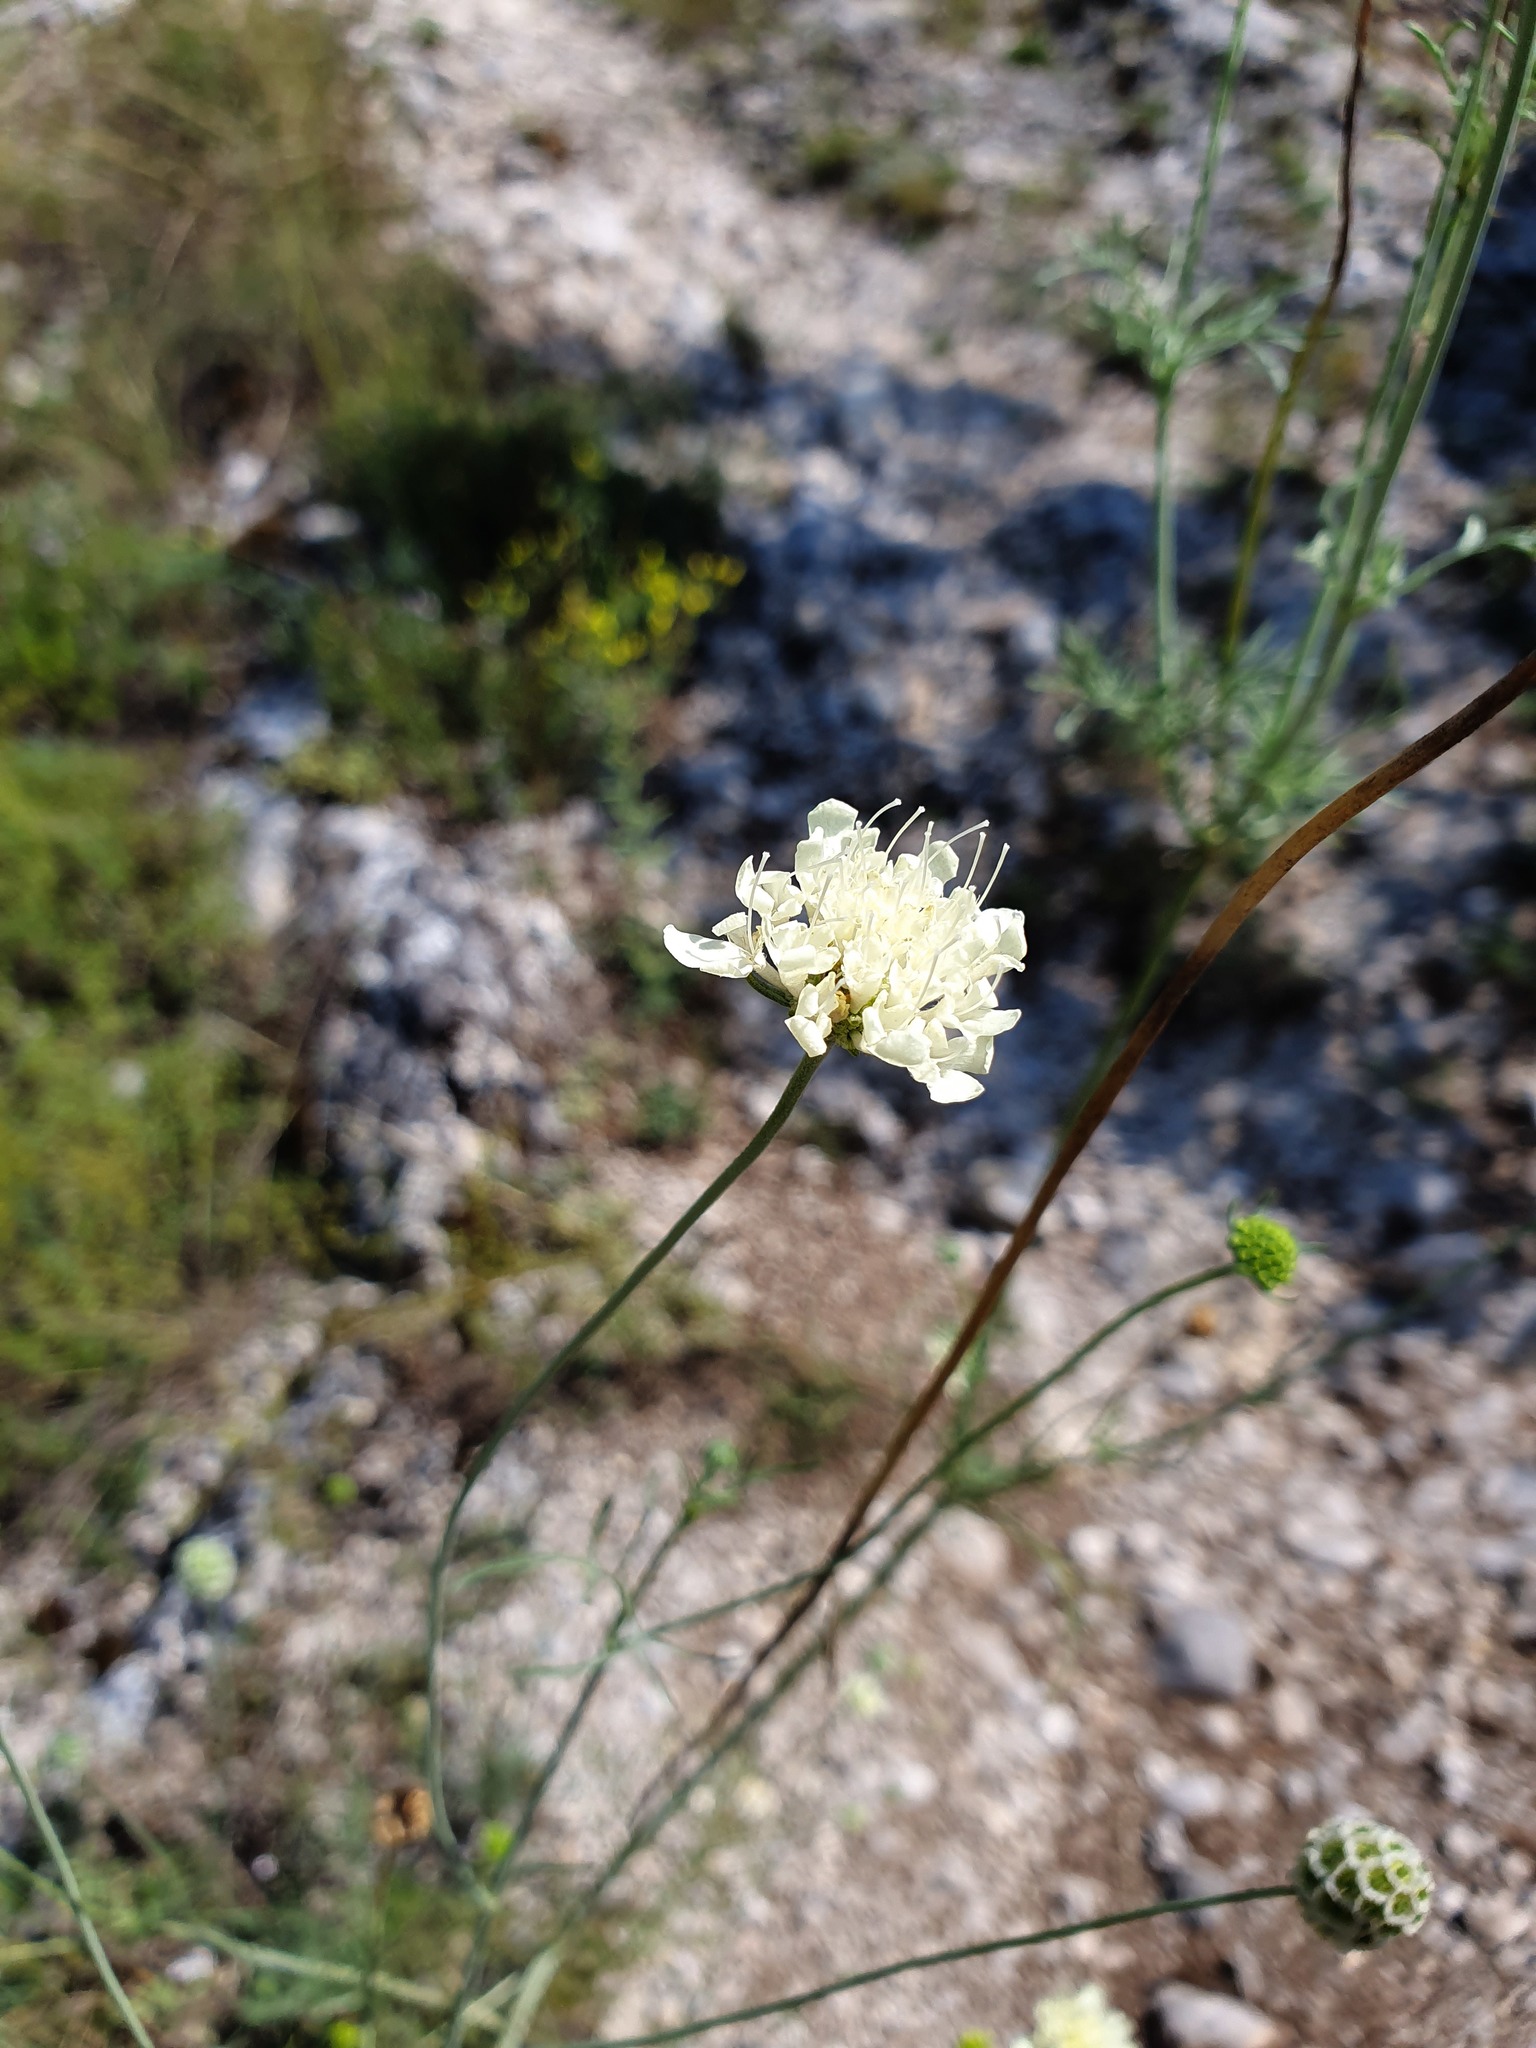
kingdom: Plantae
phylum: Tracheophyta
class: Magnoliopsida
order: Dipsacales
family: Caprifoliaceae
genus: Scabiosa
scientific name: Scabiosa fumarioides
